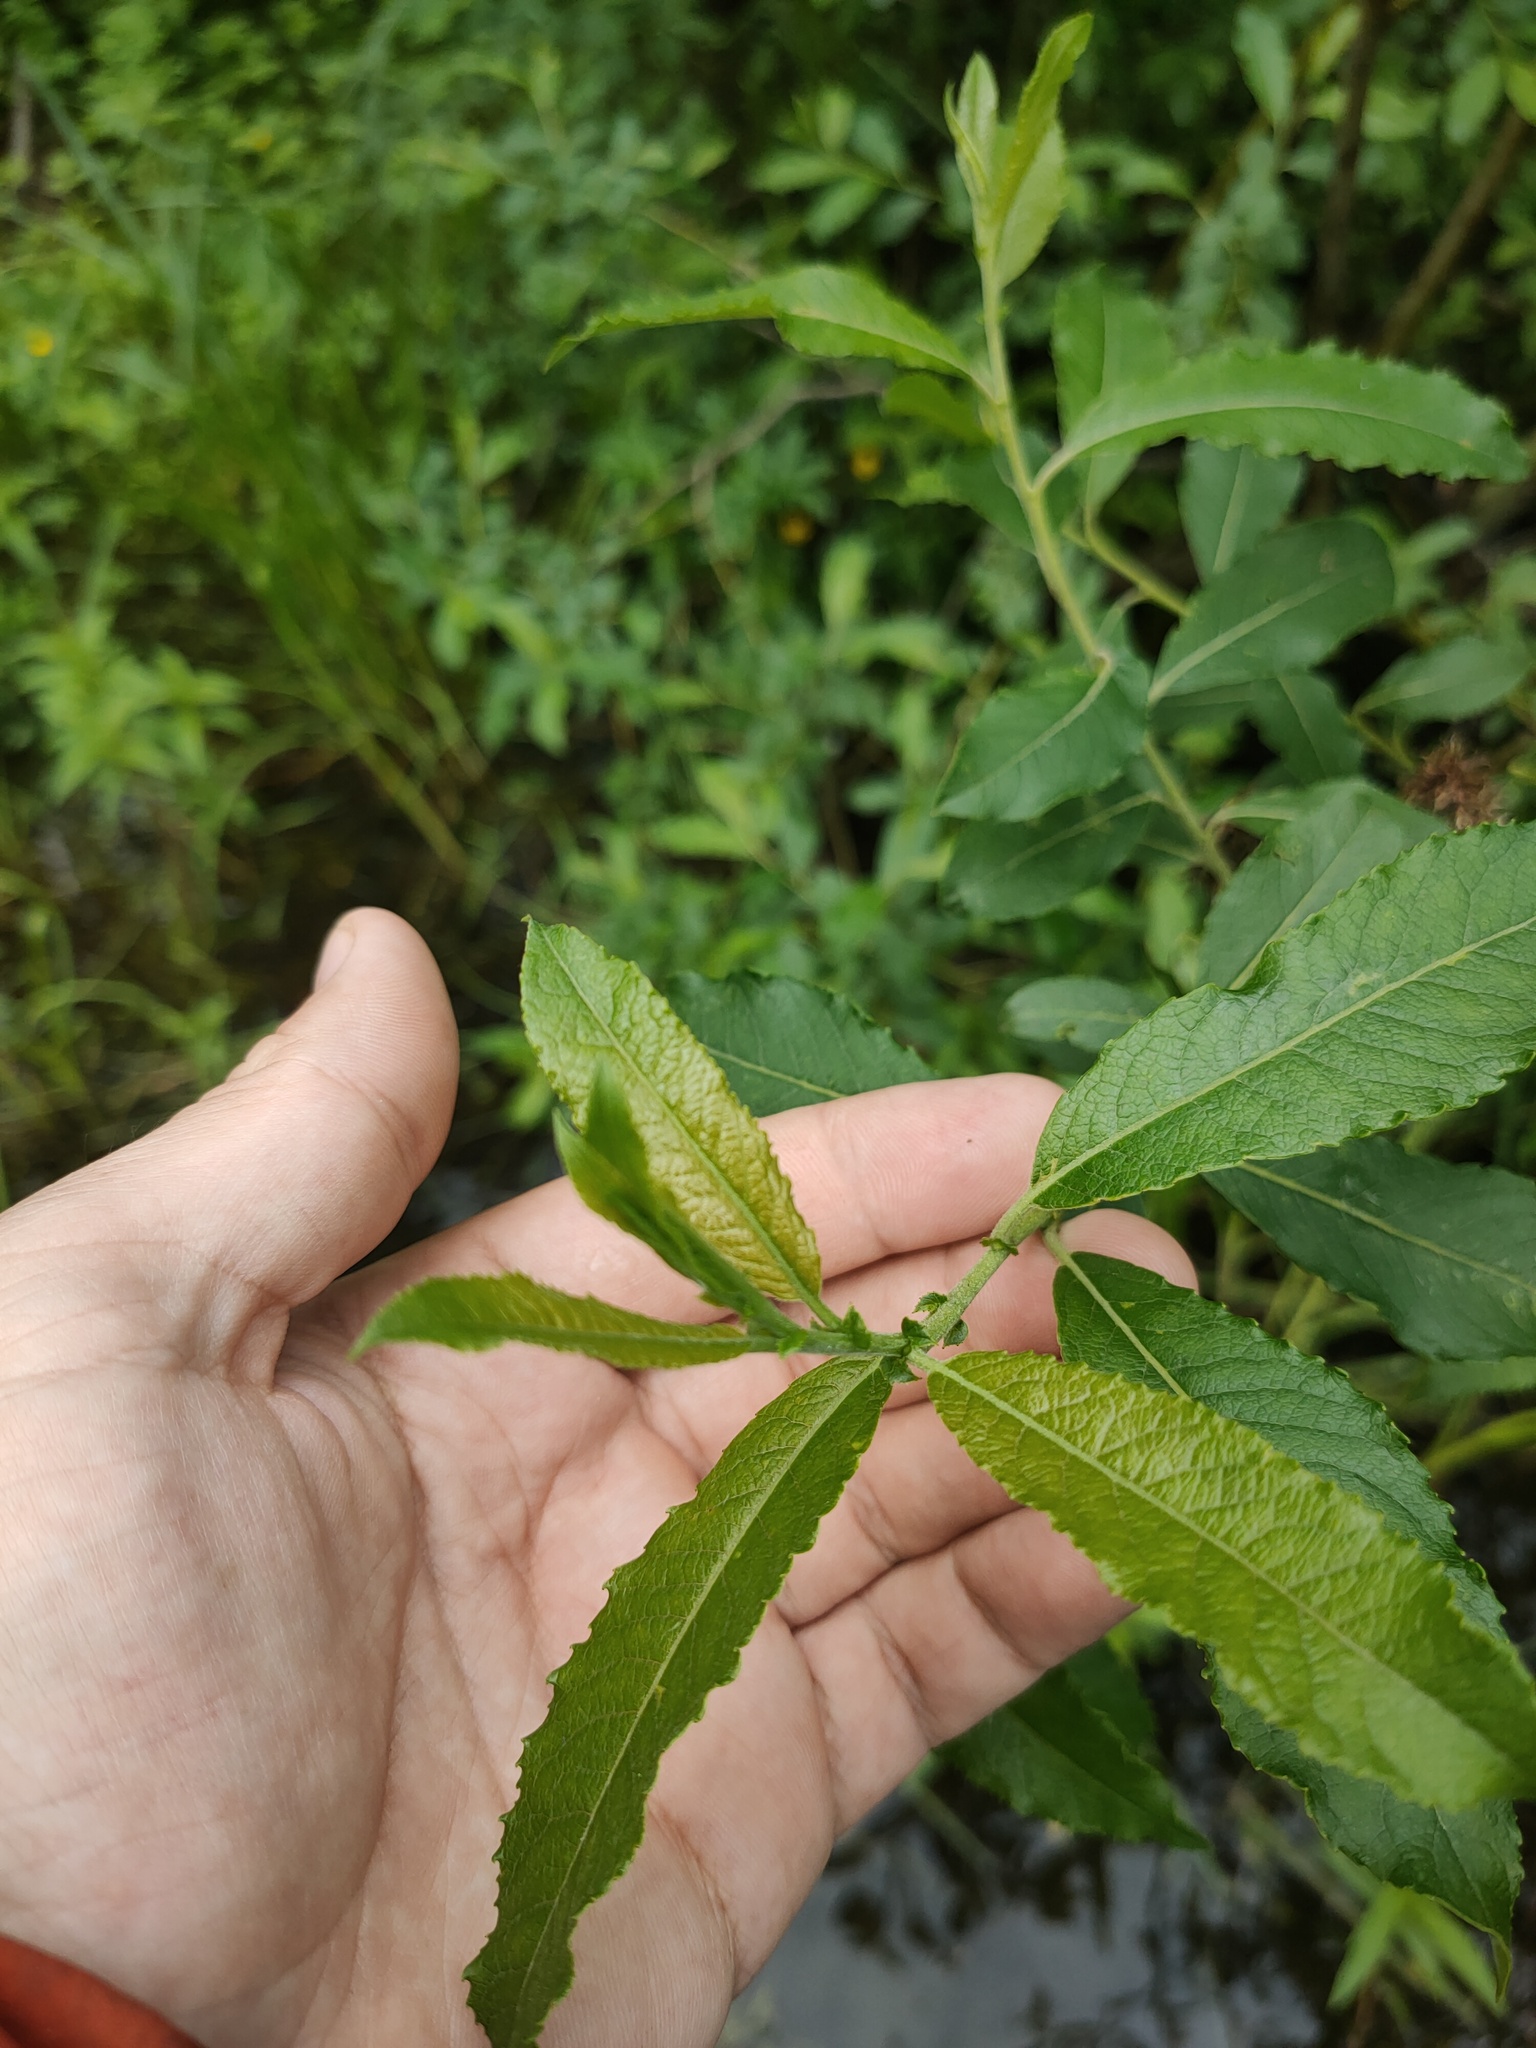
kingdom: Plantae
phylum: Tracheophyta
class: Magnoliopsida
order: Malpighiales
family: Salicaceae
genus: Salix
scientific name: Salix cinerea
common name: Common sallow
